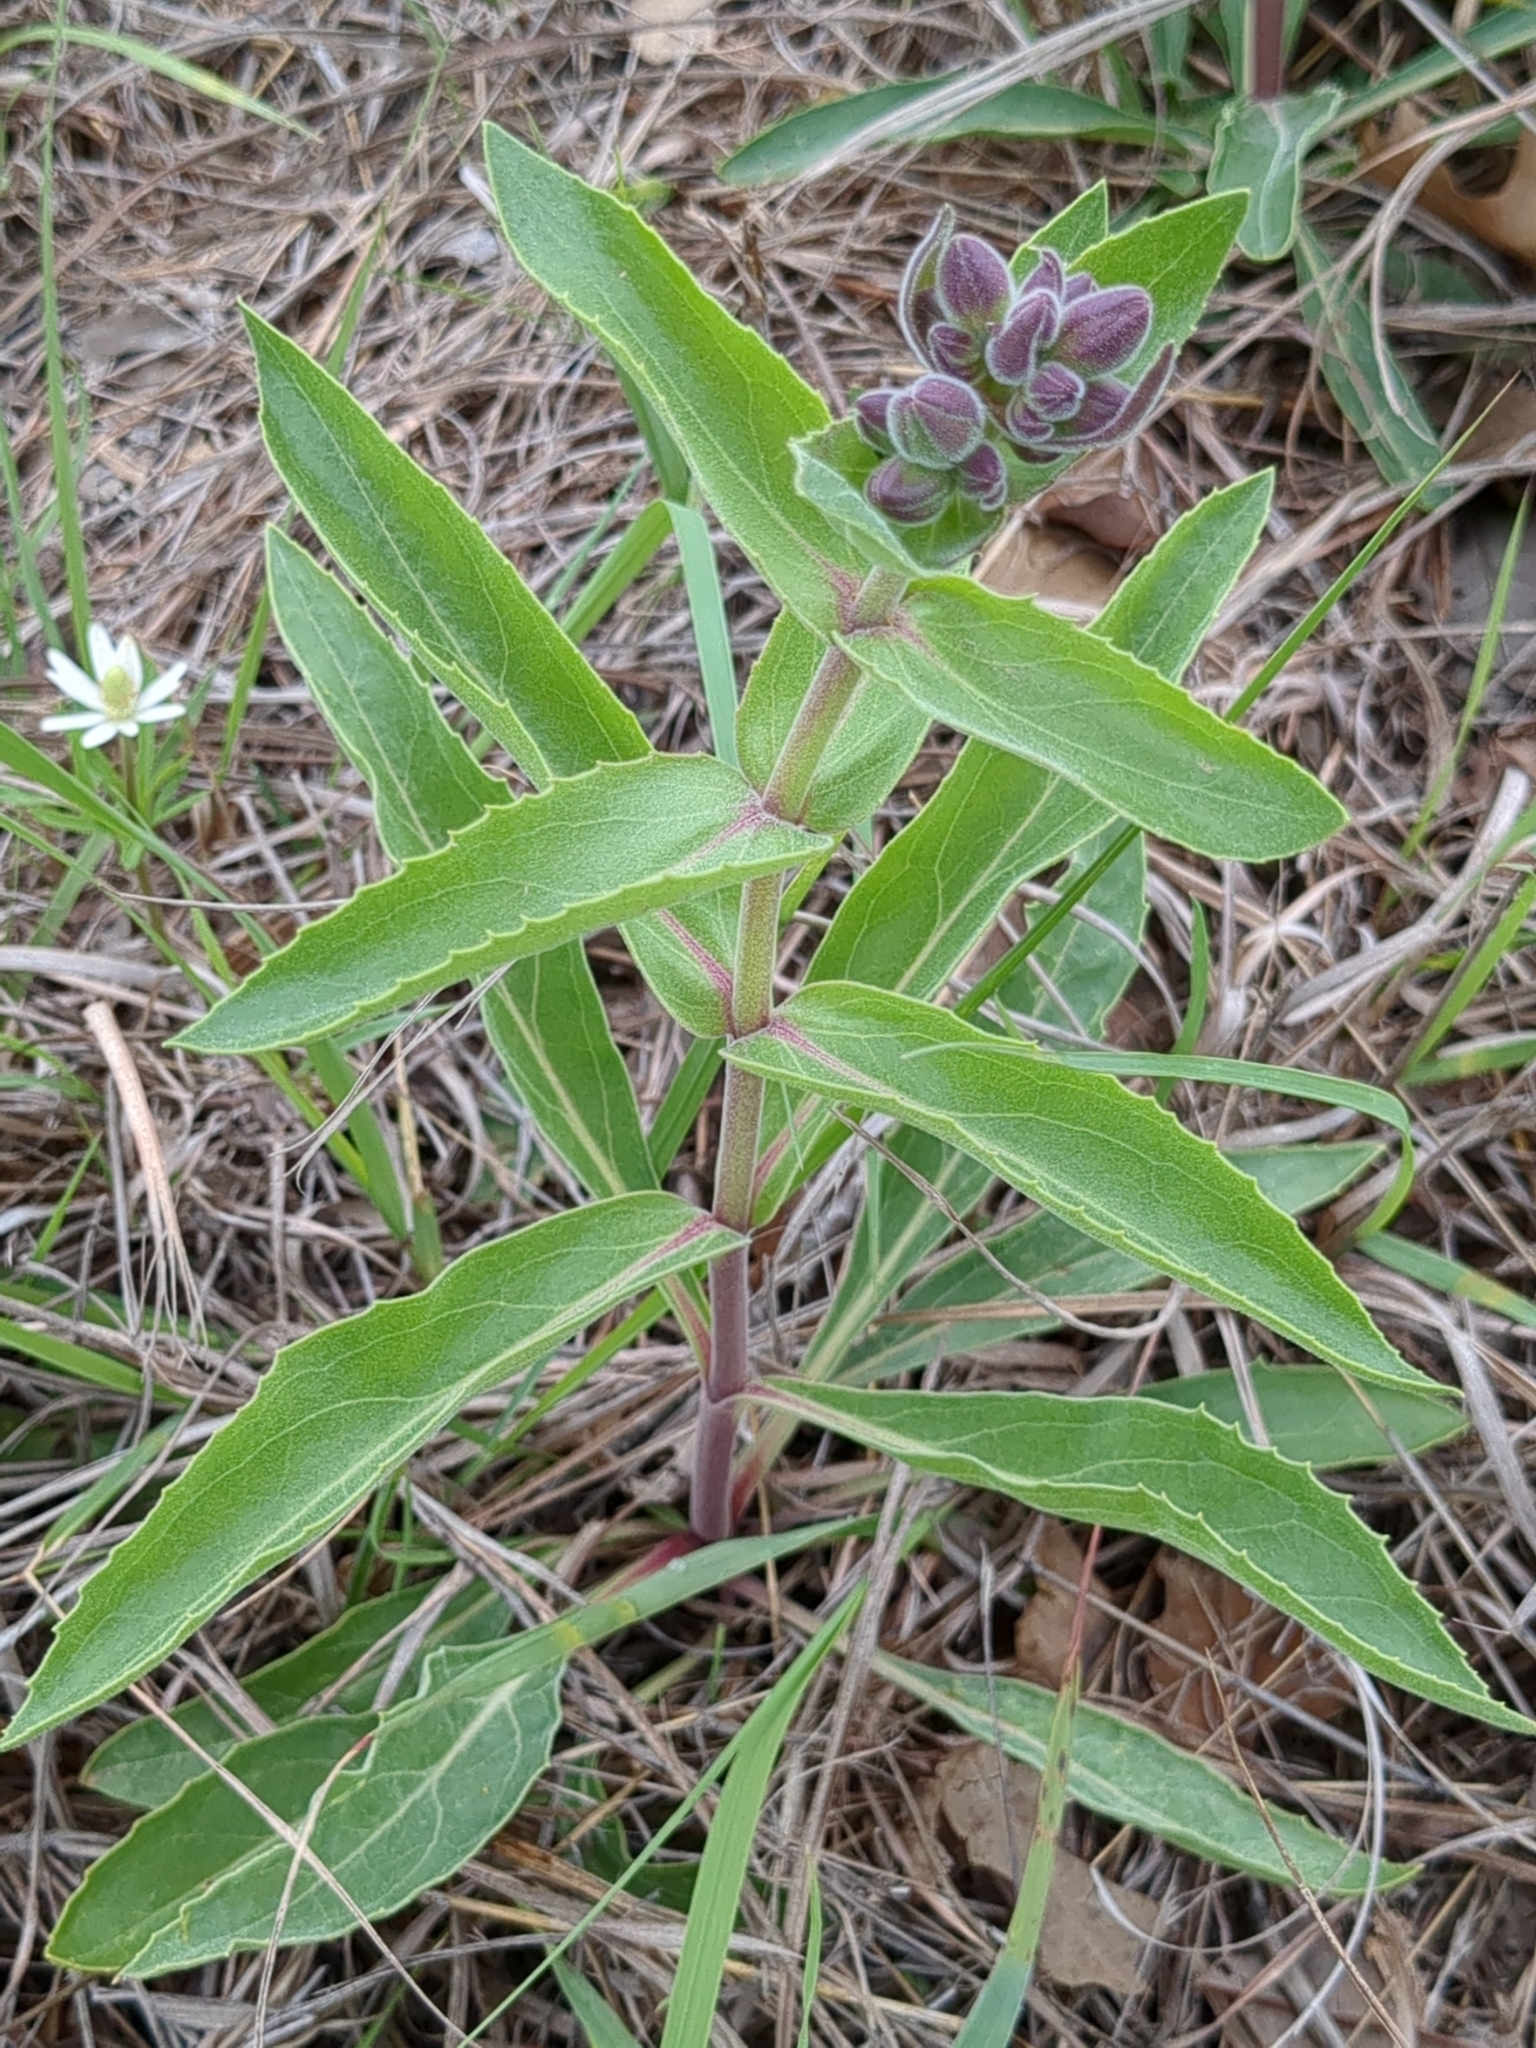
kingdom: Plantae
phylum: Tracheophyta
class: Magnoliopsida
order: Lamiales
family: Plantaginaceae
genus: Penstemon
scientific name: Penstemon cobaea
